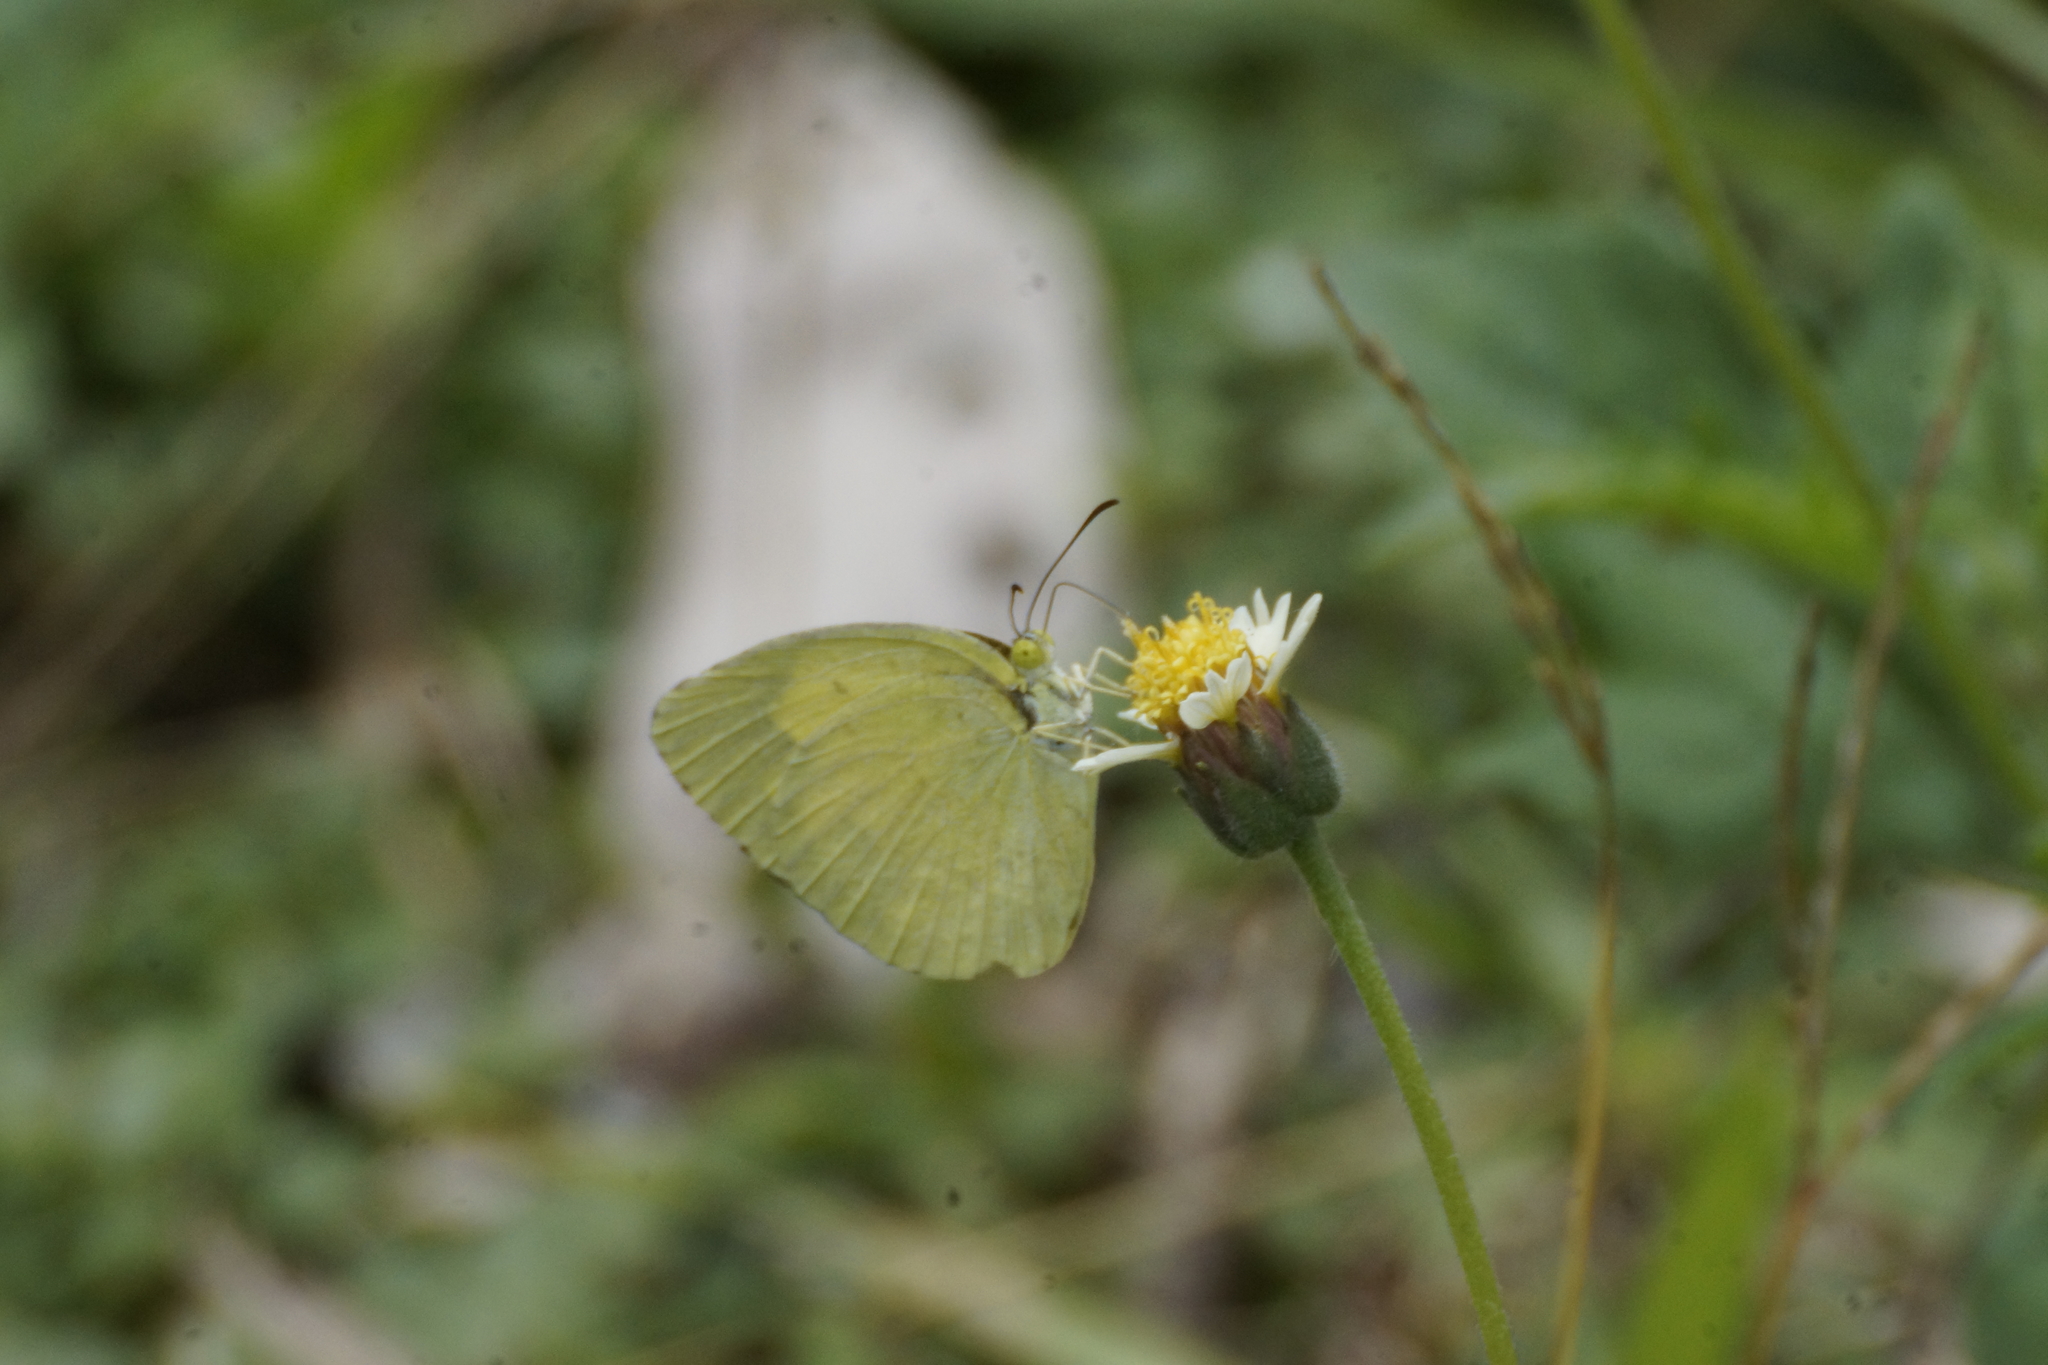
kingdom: Animalia
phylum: Arthropoda
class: Insecta
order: Lepidoptera
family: Pieridae
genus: Eurema
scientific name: Eurema hecabe
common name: Pale grass yellow
